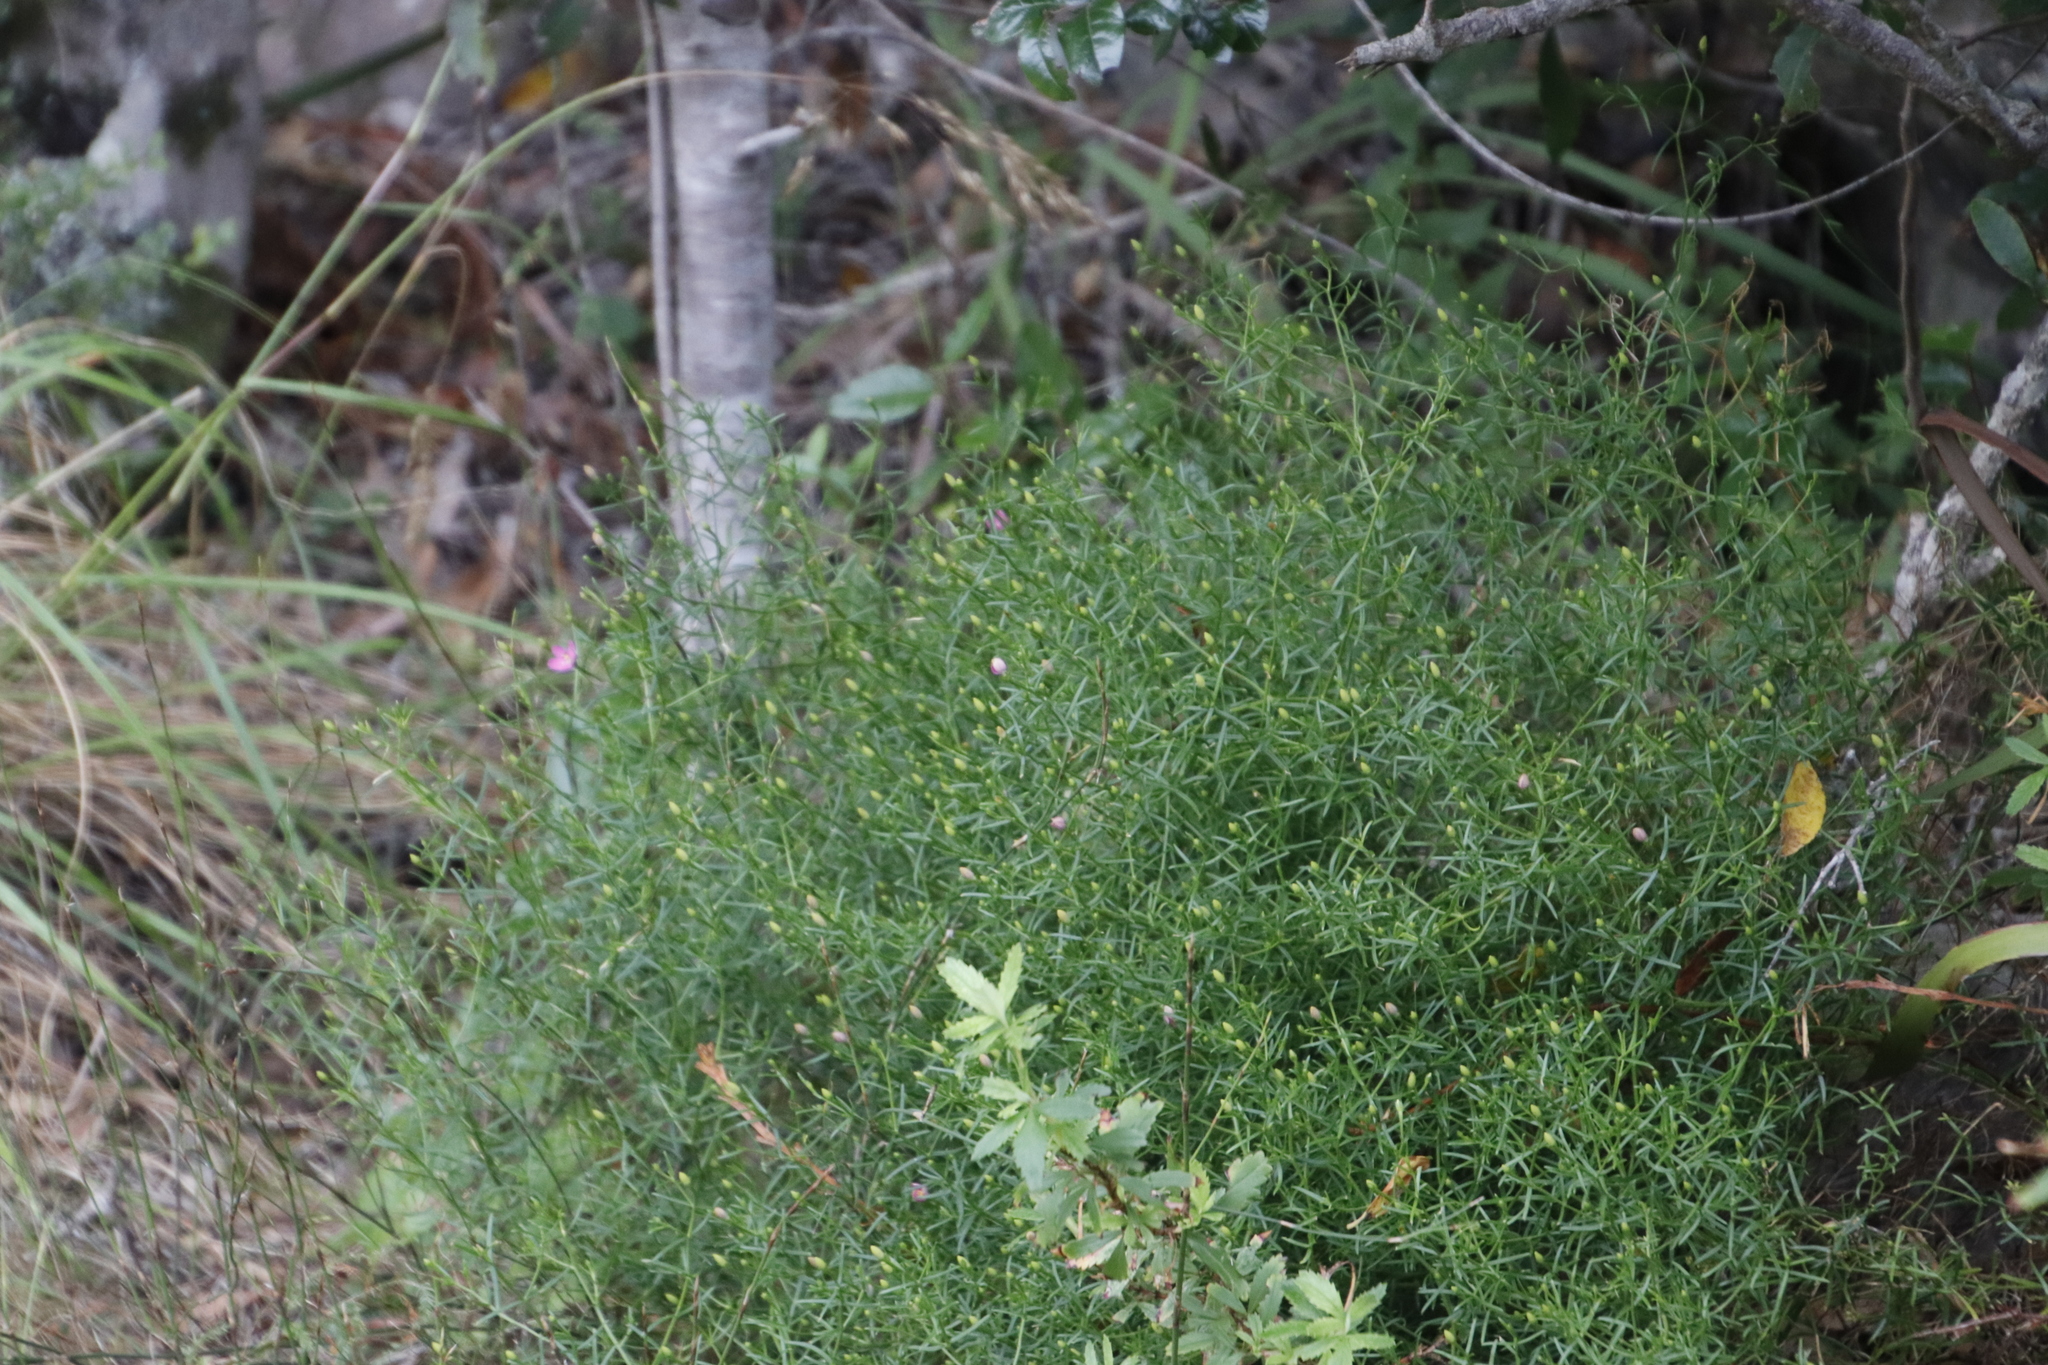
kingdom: Plantae
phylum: Tracheophyta
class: Magnoliopsida
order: Gentianales
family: Gentianaceae
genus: Chironia
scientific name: Chironia baccifera
